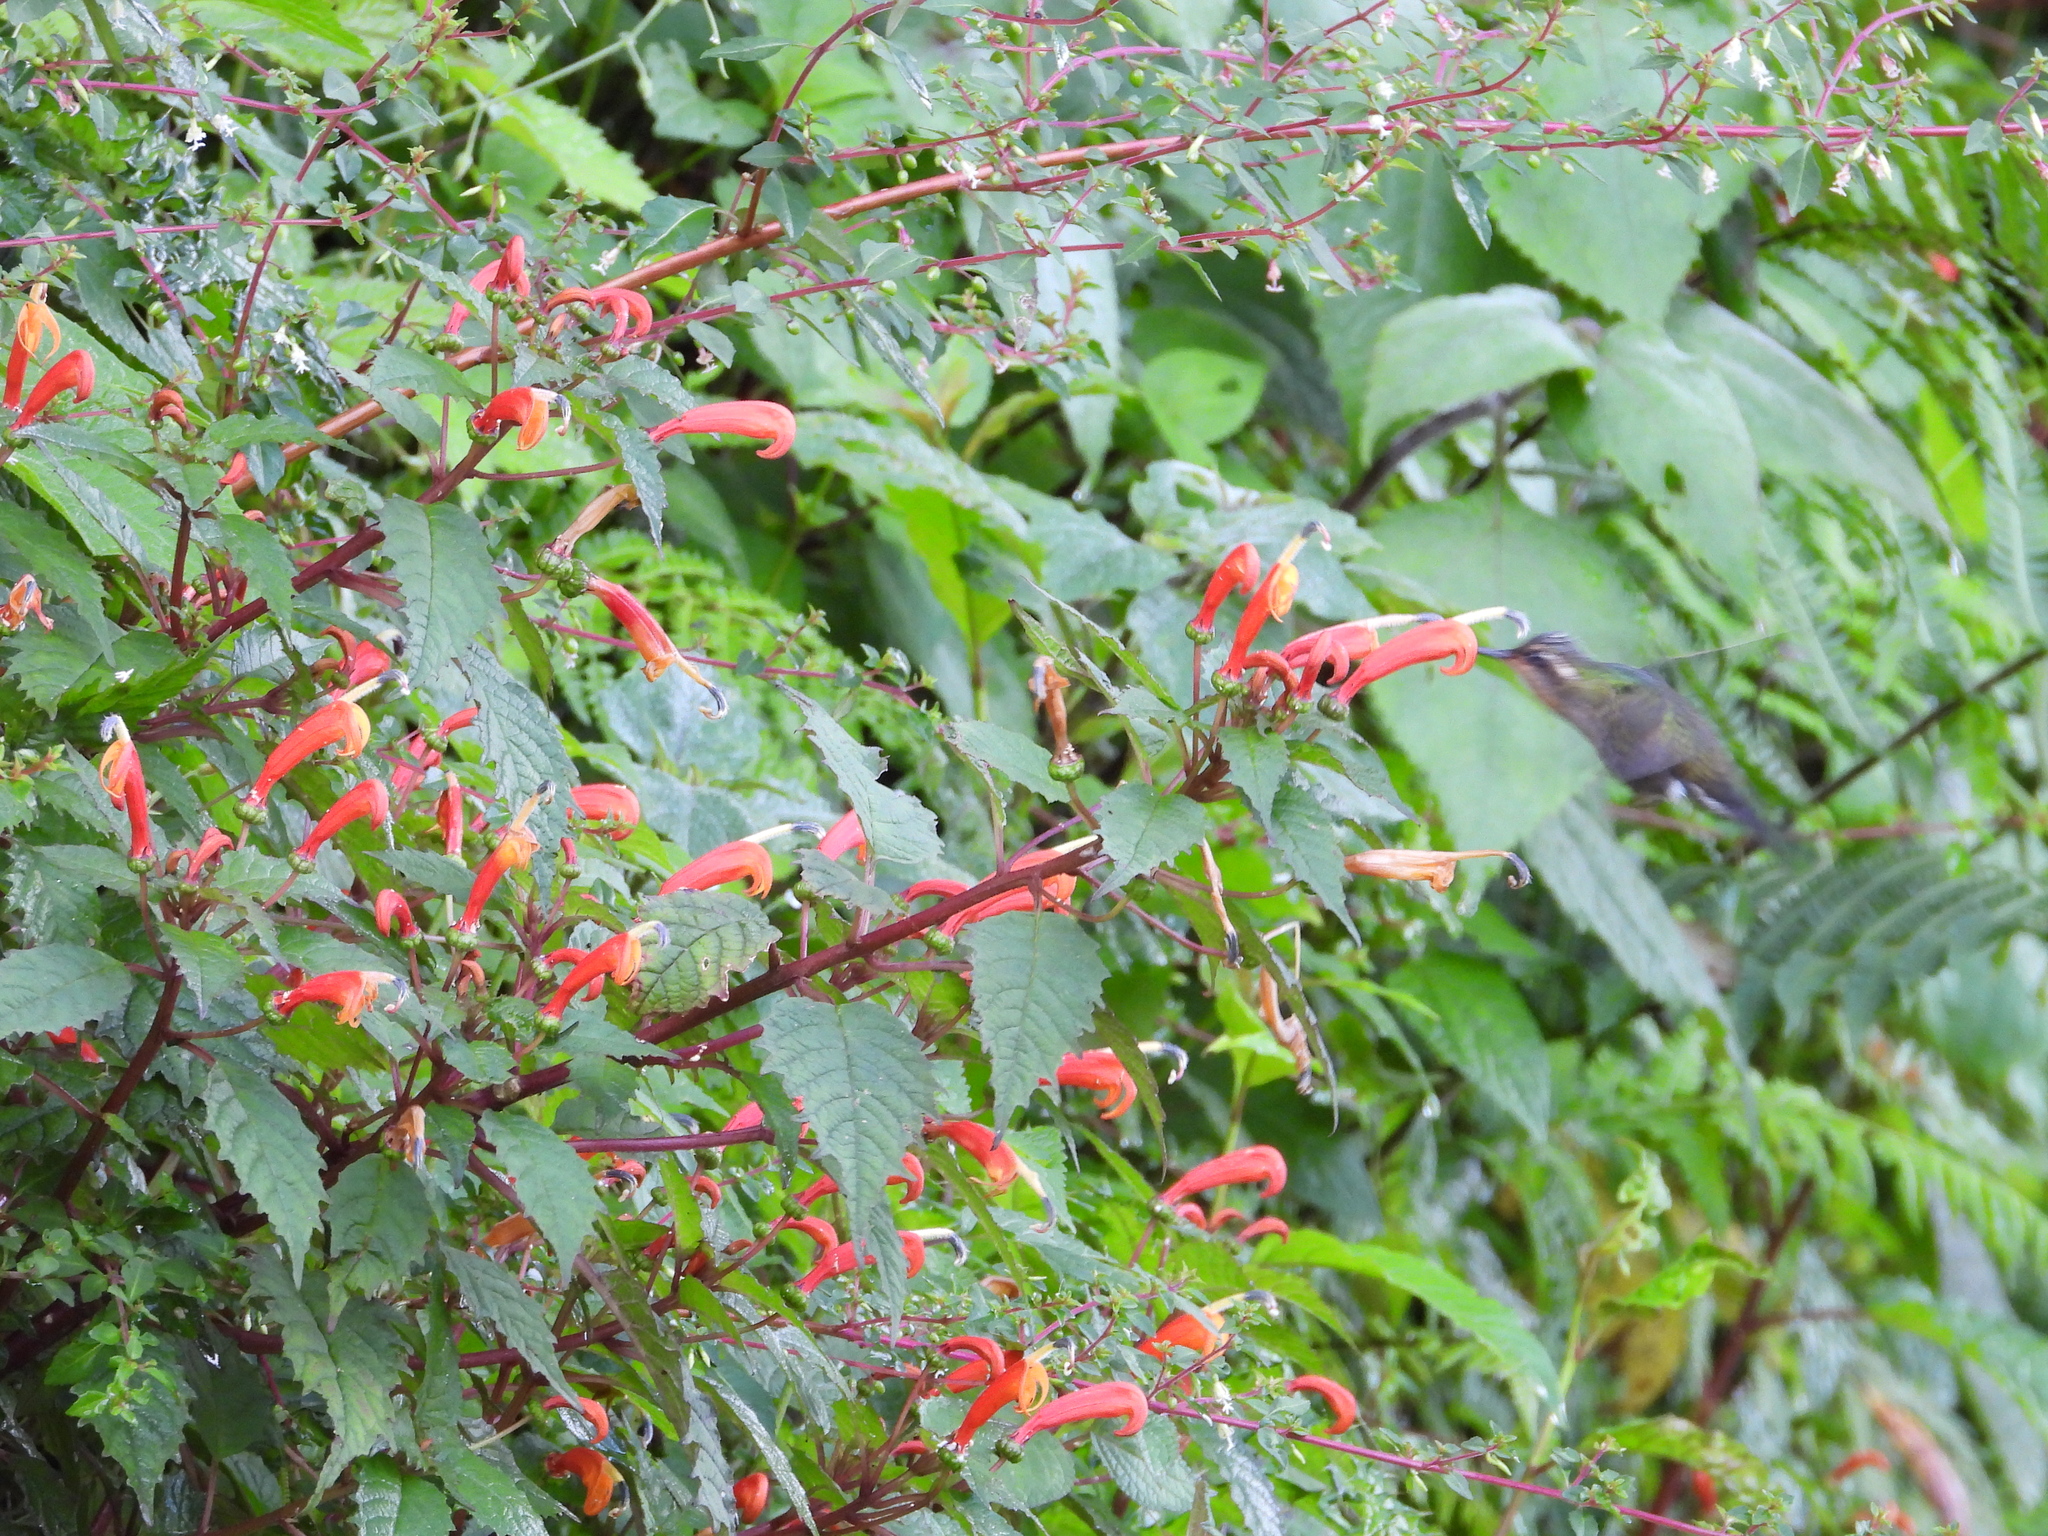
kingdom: Animalia
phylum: Chordata
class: Aves
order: Apodiformes
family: Trochilidae
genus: Lampornis
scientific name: Lampornis amethystinus
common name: Amethyst-throated mountaingem
